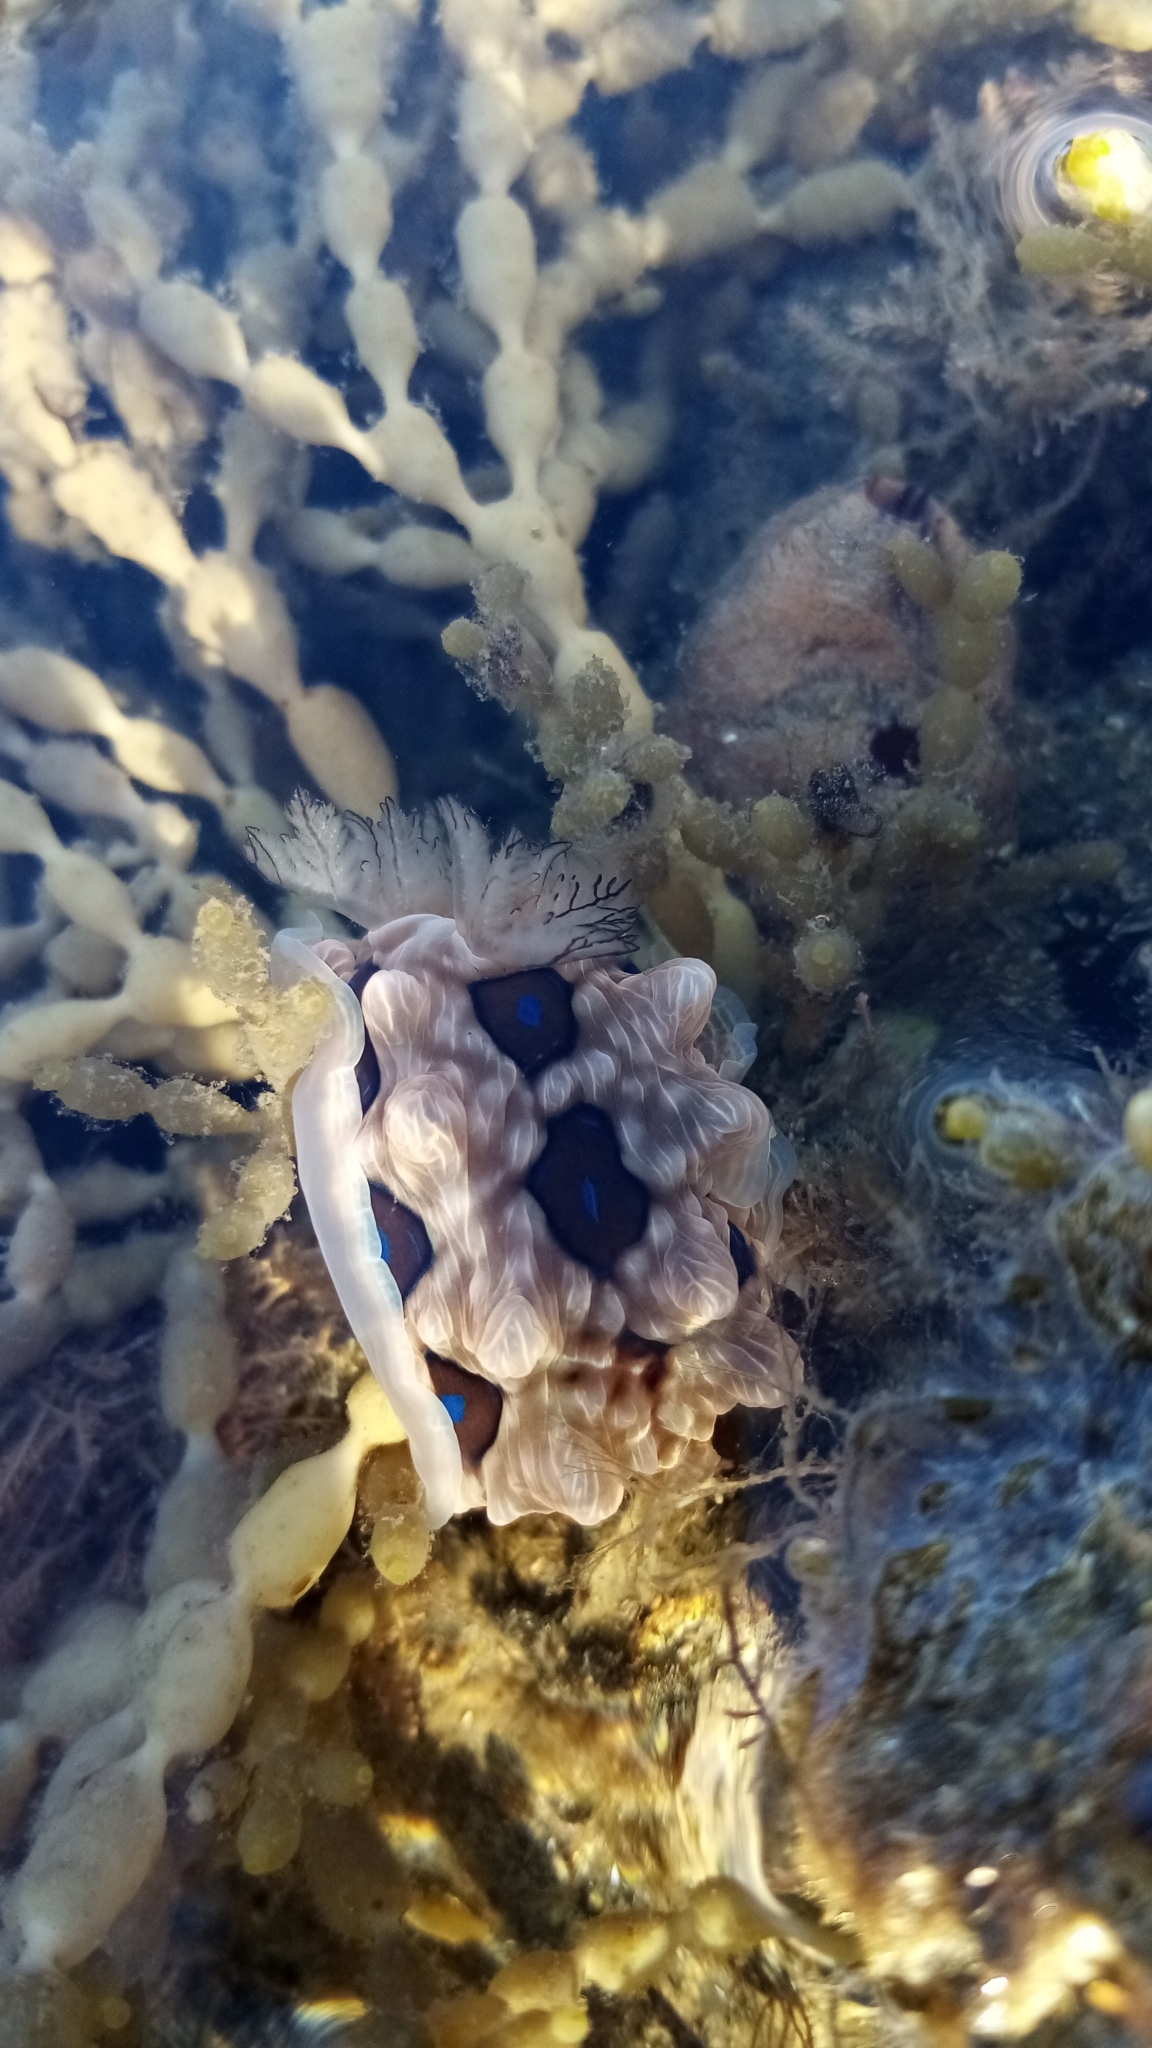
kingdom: Animalia
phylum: Mollusca
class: Gastropoda
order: Nudibranchia
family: Dendrodorididae
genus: Dendrodoris
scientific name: Dendrodoris krusensternii
